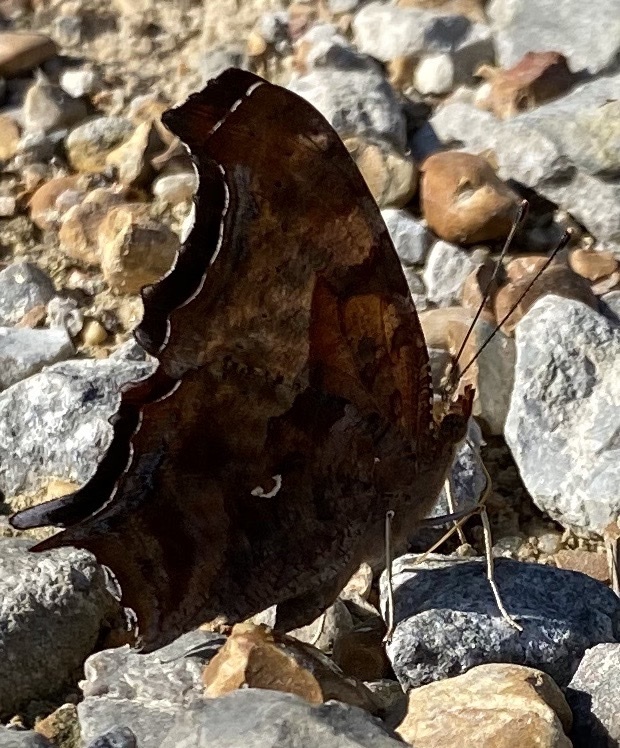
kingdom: Animalia
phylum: Arthropoda
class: Insecta
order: Lepidoptera
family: Nymphalidae
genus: Polygonia
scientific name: Polygonia interrogationis
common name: Question mark
